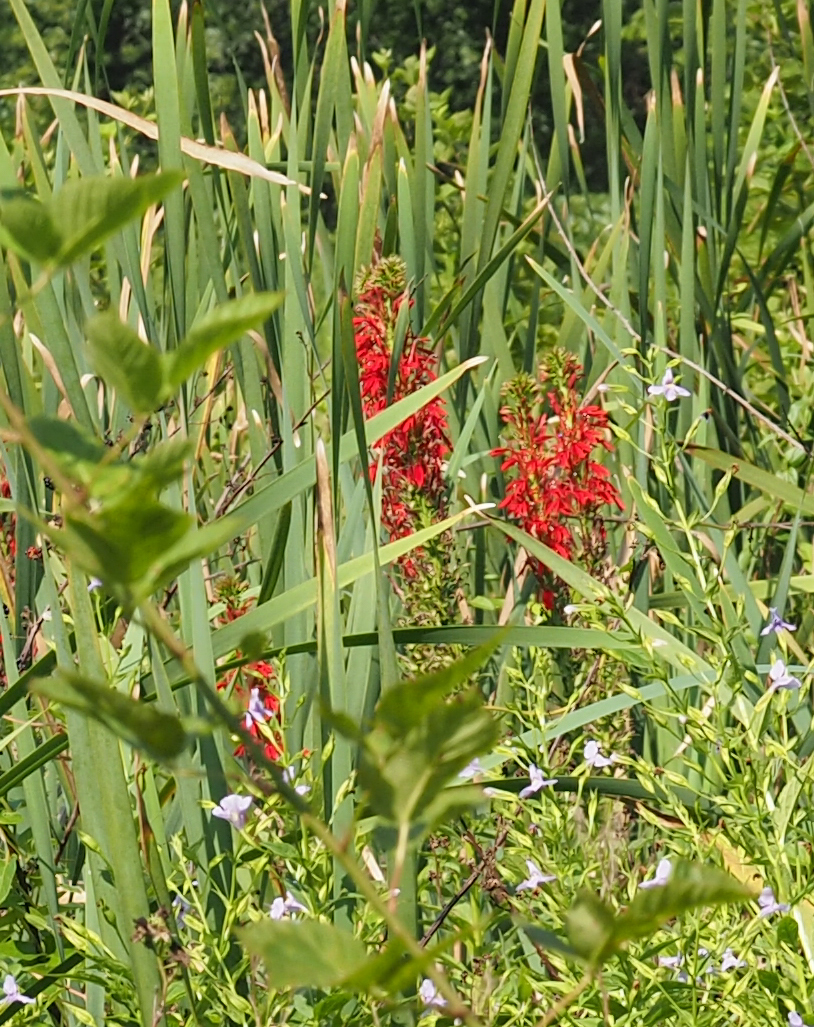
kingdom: Plantae
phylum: Tracheophyta
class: Magnoliopsida
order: Asterales
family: Campanulaceae
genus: Lobelia
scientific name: Lobelia cardinalis
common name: Cardinal flower
